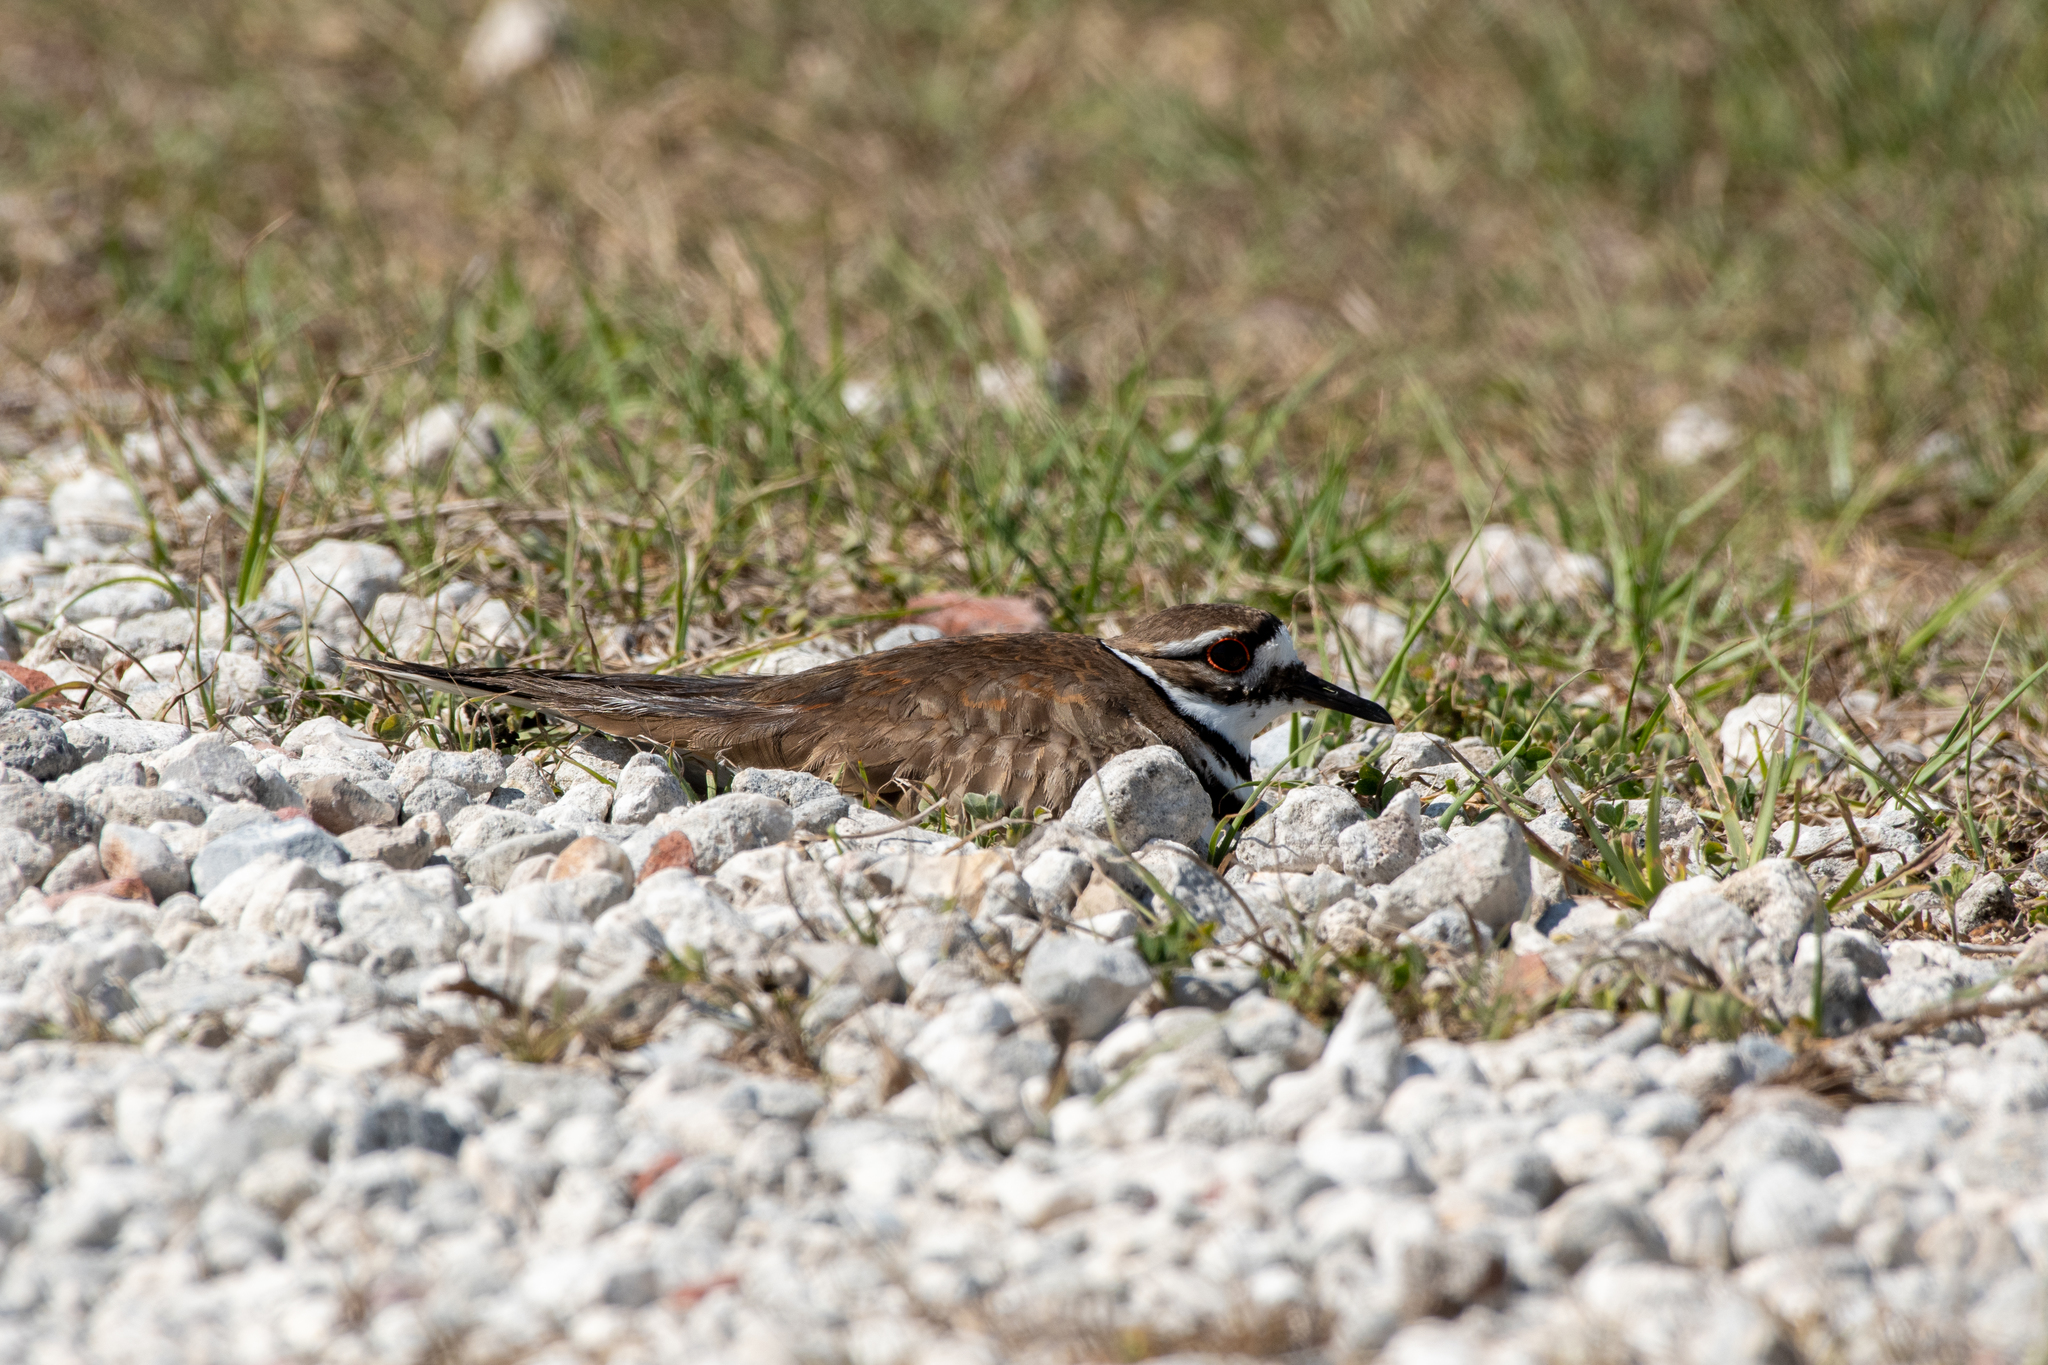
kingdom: Animalia
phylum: Chordata
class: Aves
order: Charadriiformes
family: Charadriidae
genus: Charadrius
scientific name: Charadrius vociferus
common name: Killdeer
